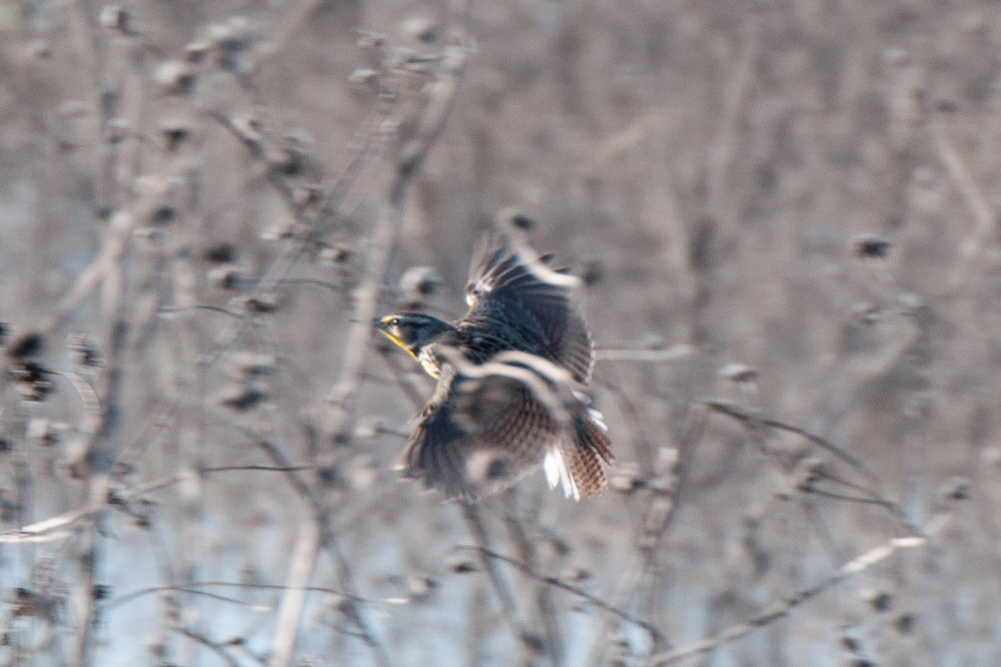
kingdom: Animalia
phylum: Chordata
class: Aves
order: Passeriformes
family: Icteridae
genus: Sturnella
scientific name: Sturnella neglecta
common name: Western meadowlark
